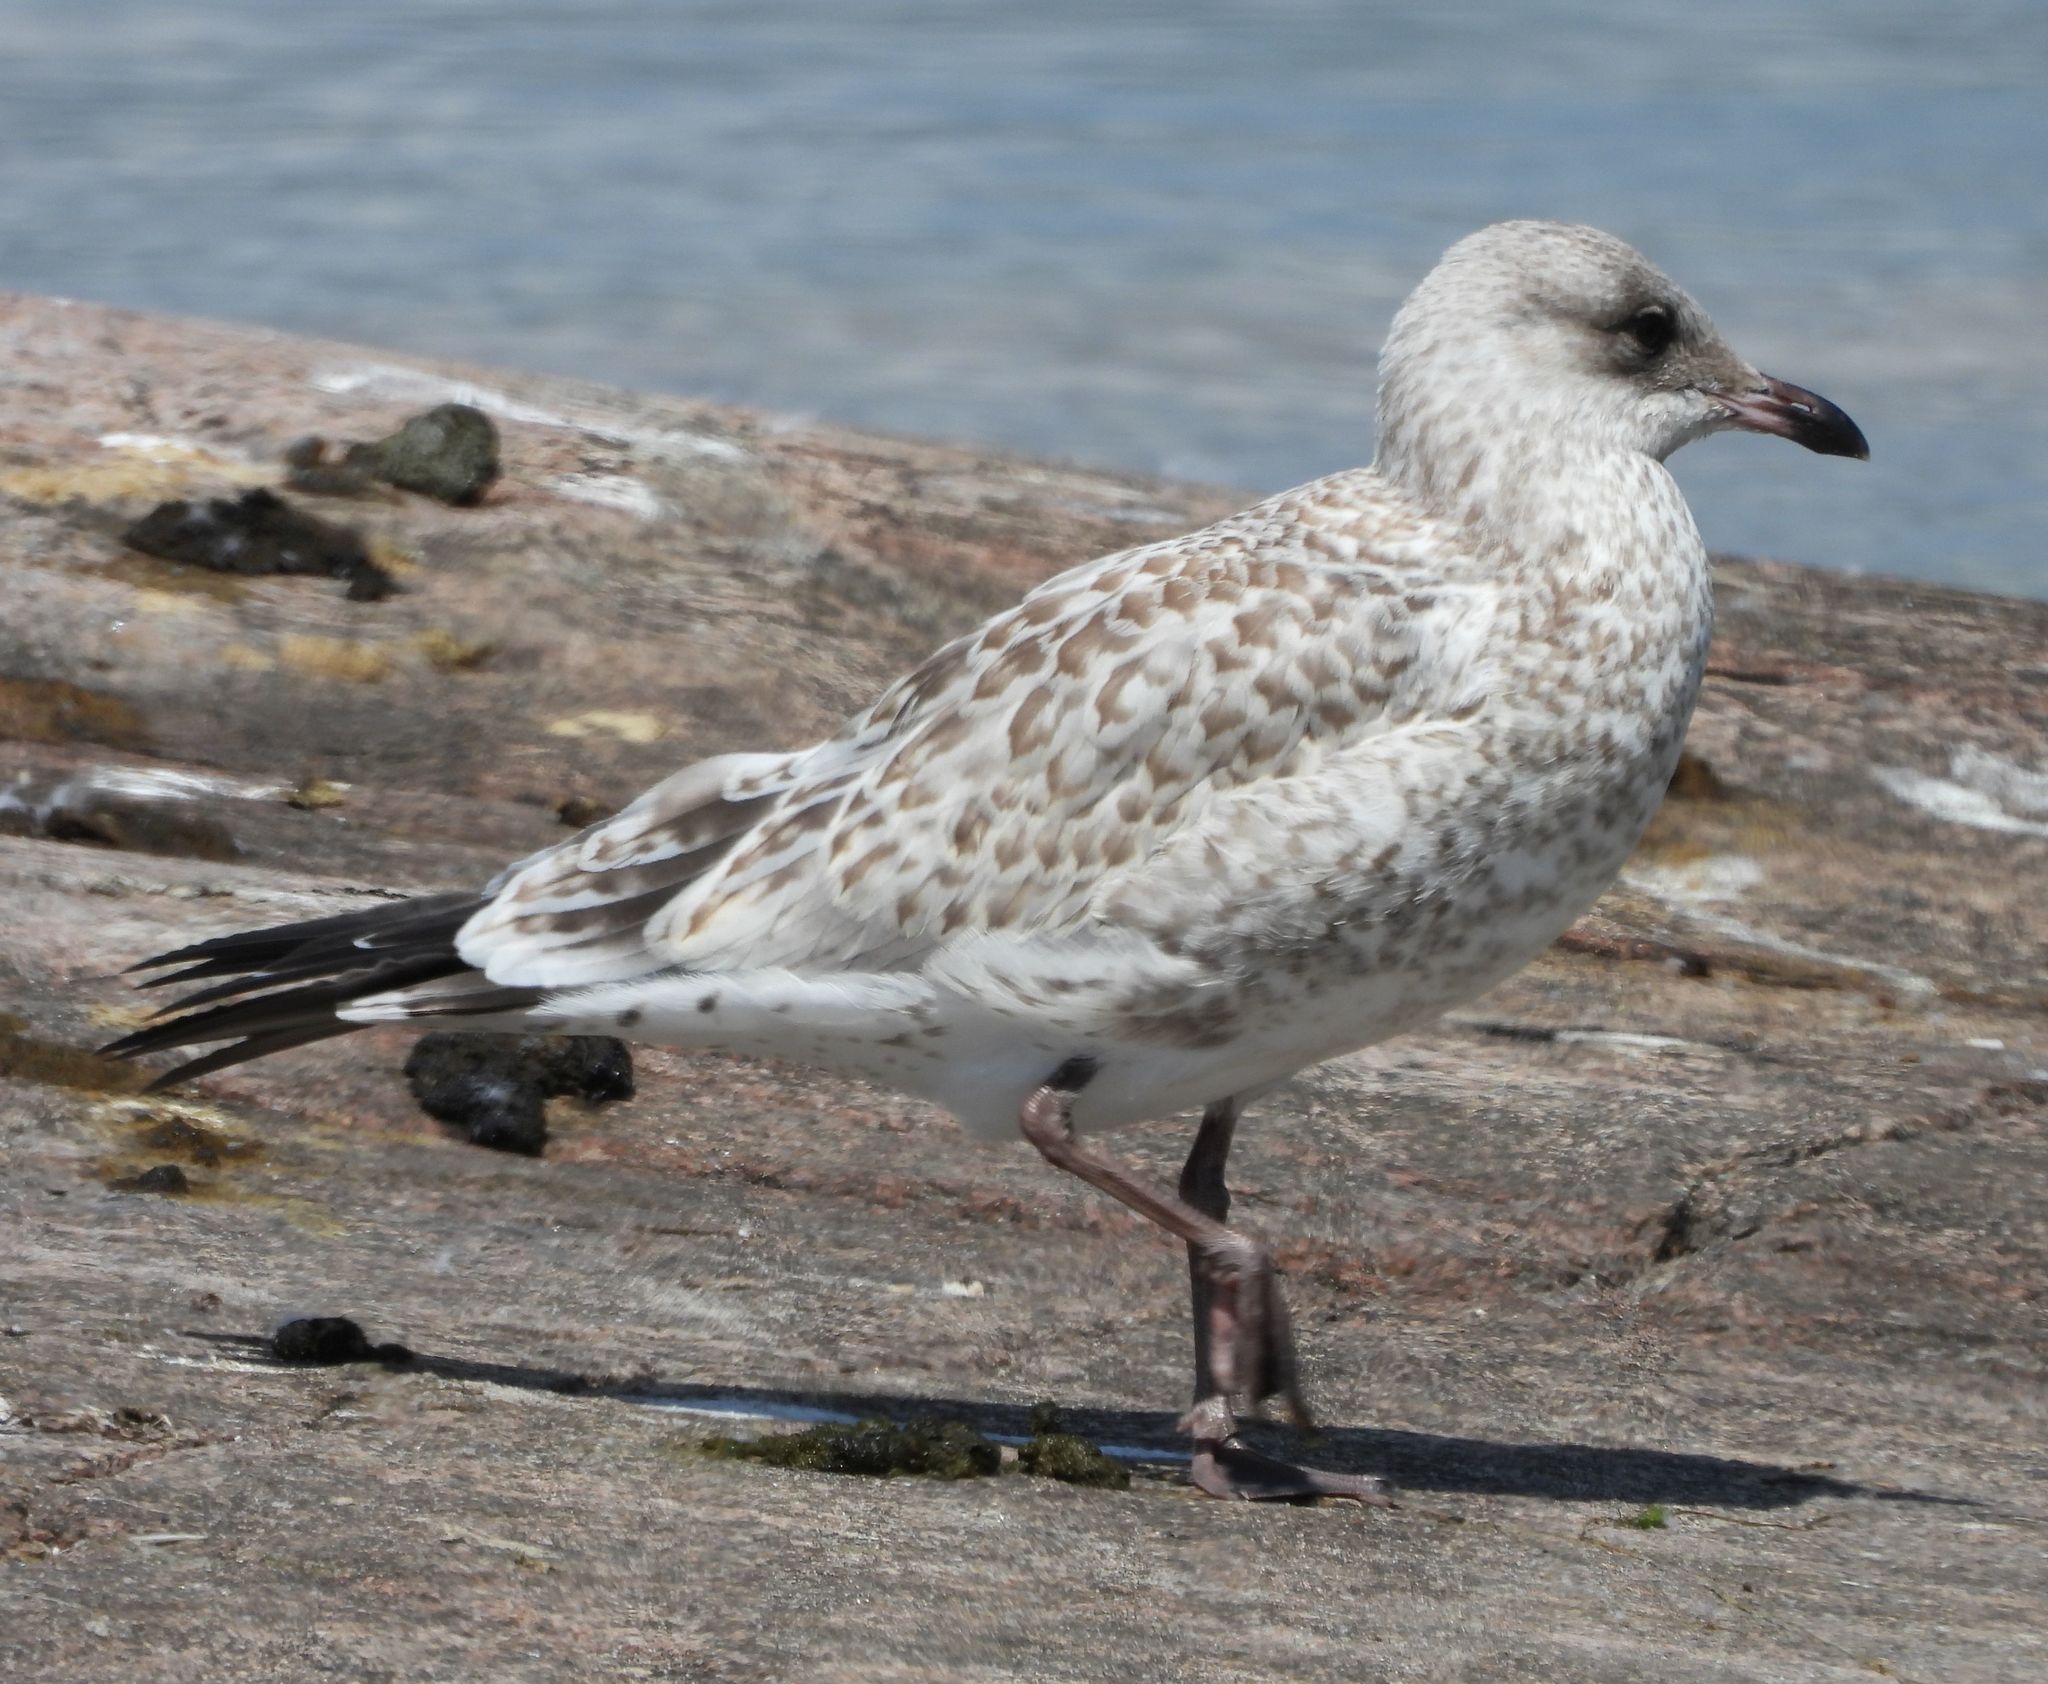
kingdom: Animalia
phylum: Chordata
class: Aves
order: Charadriiformes
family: Laridae
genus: Larus
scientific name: Larus delawarensis
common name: Ring-billed gull
